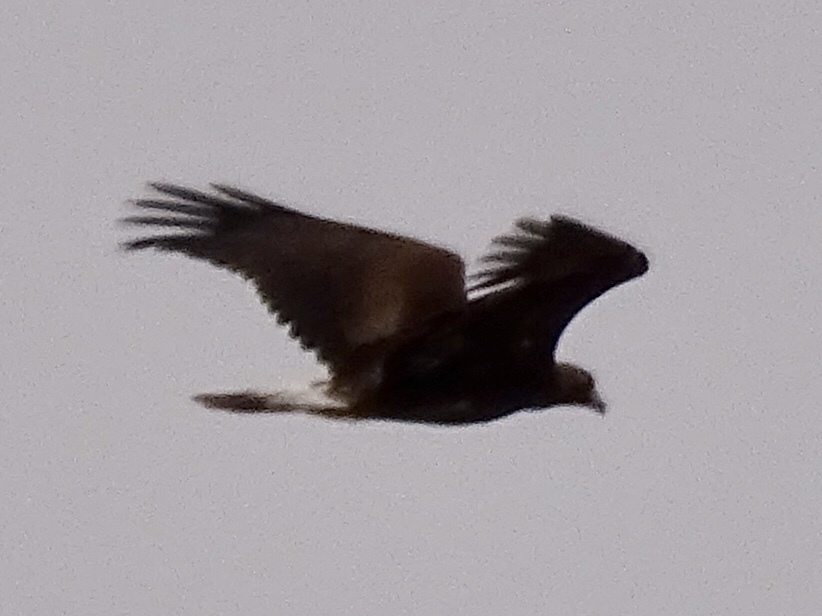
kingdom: Animalia
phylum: Chordata
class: Aves
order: Accipitriformes
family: Accipitridae
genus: Aquila
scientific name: Aquila chrysaetos
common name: Golden eagle
